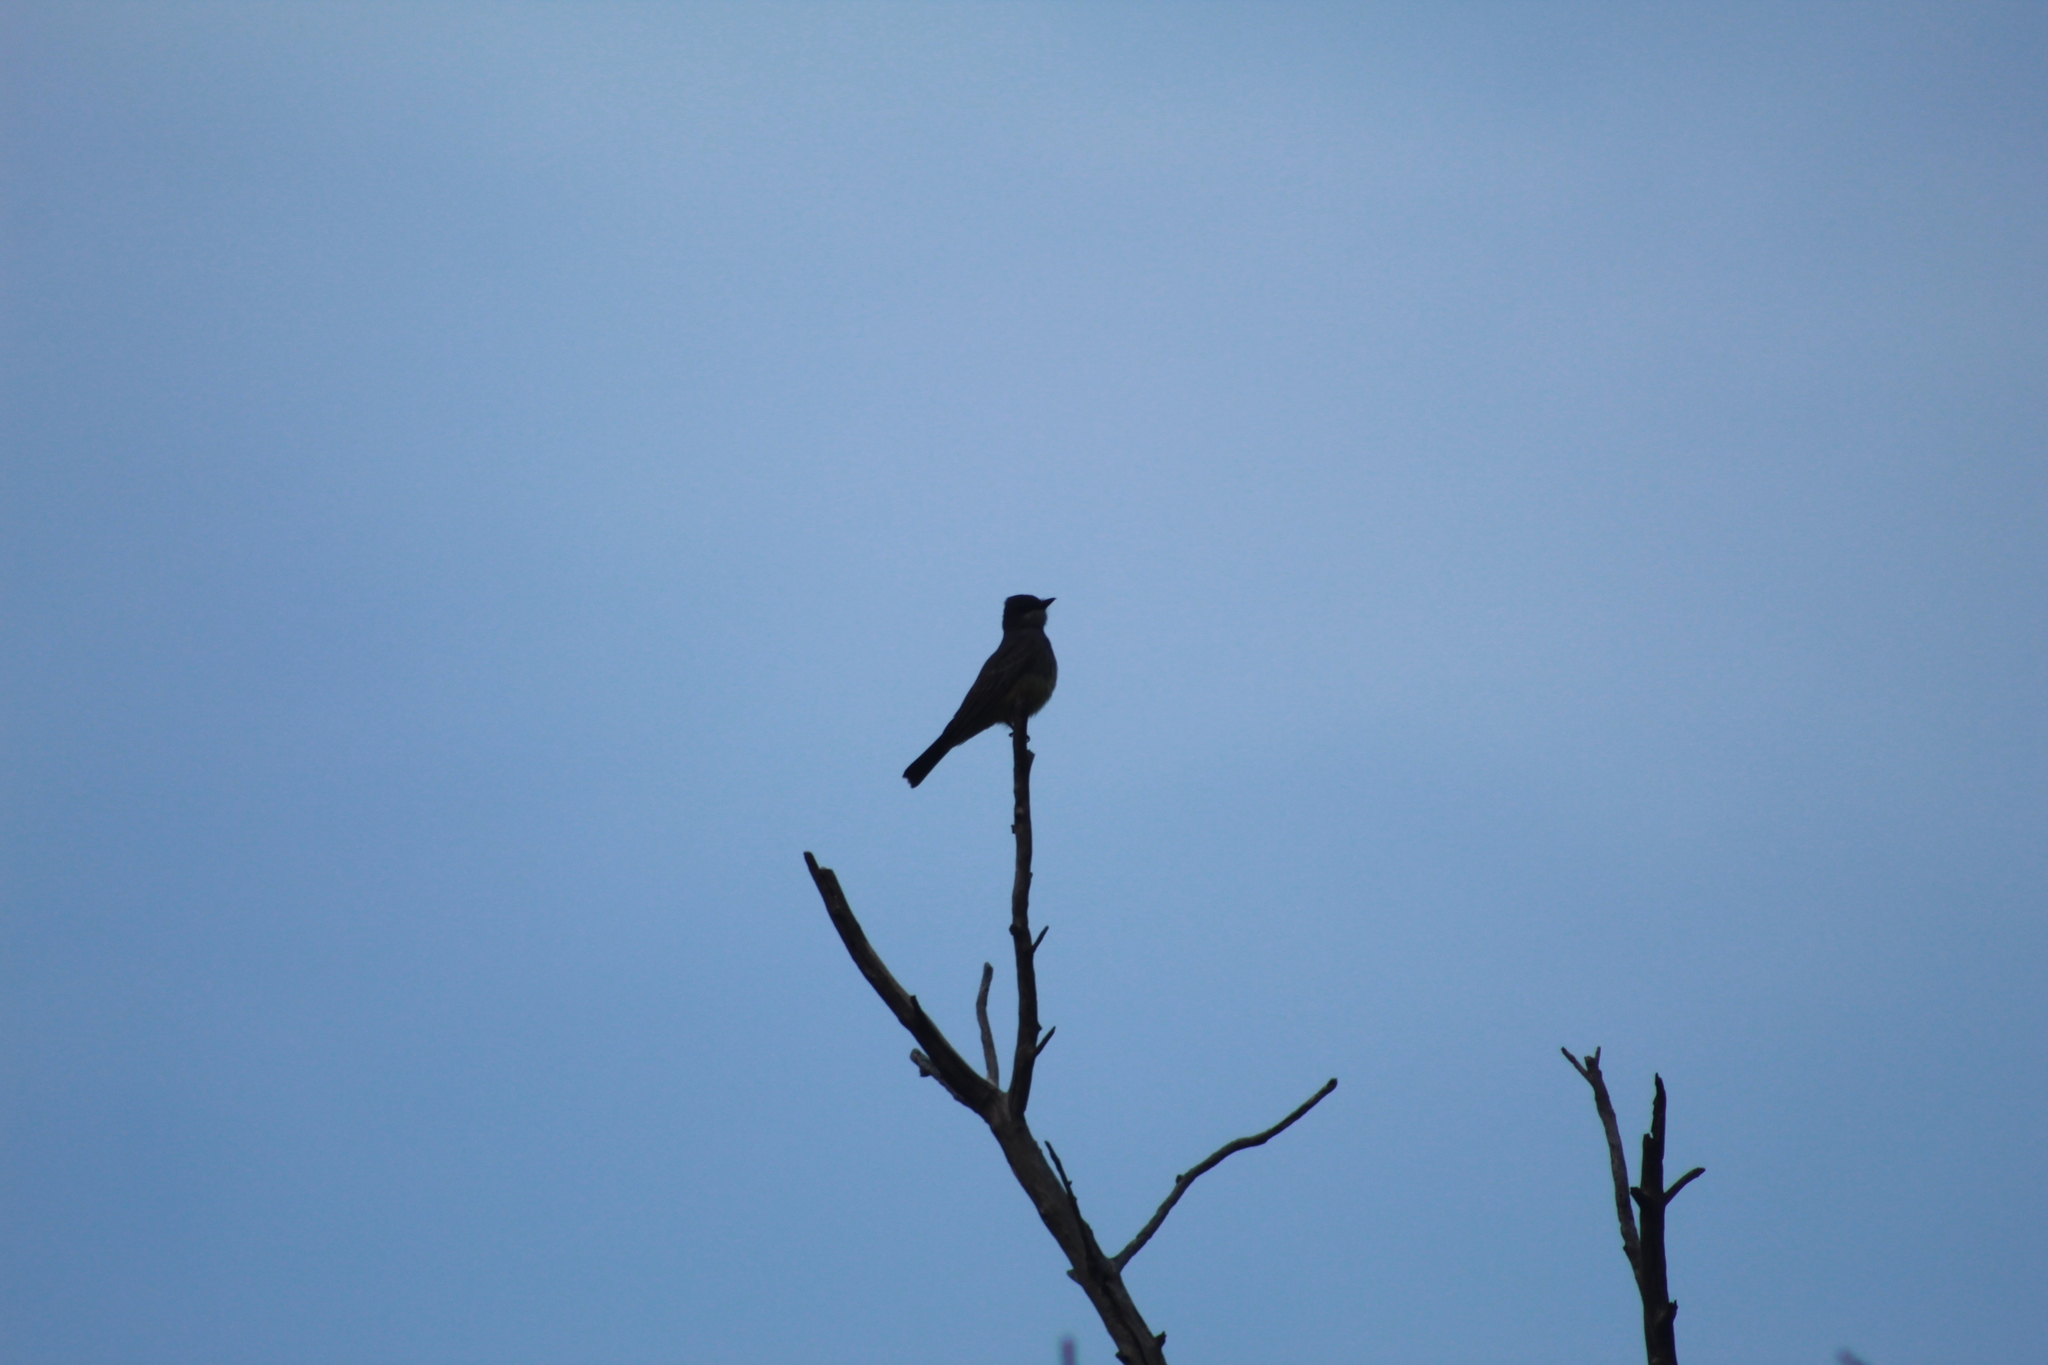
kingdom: Animalia
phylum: Chordata
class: Aves
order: Passeriformes
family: Tyrannidae
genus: Tyrannus
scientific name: Tyrannus vociferans
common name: Cassin's kingbird
